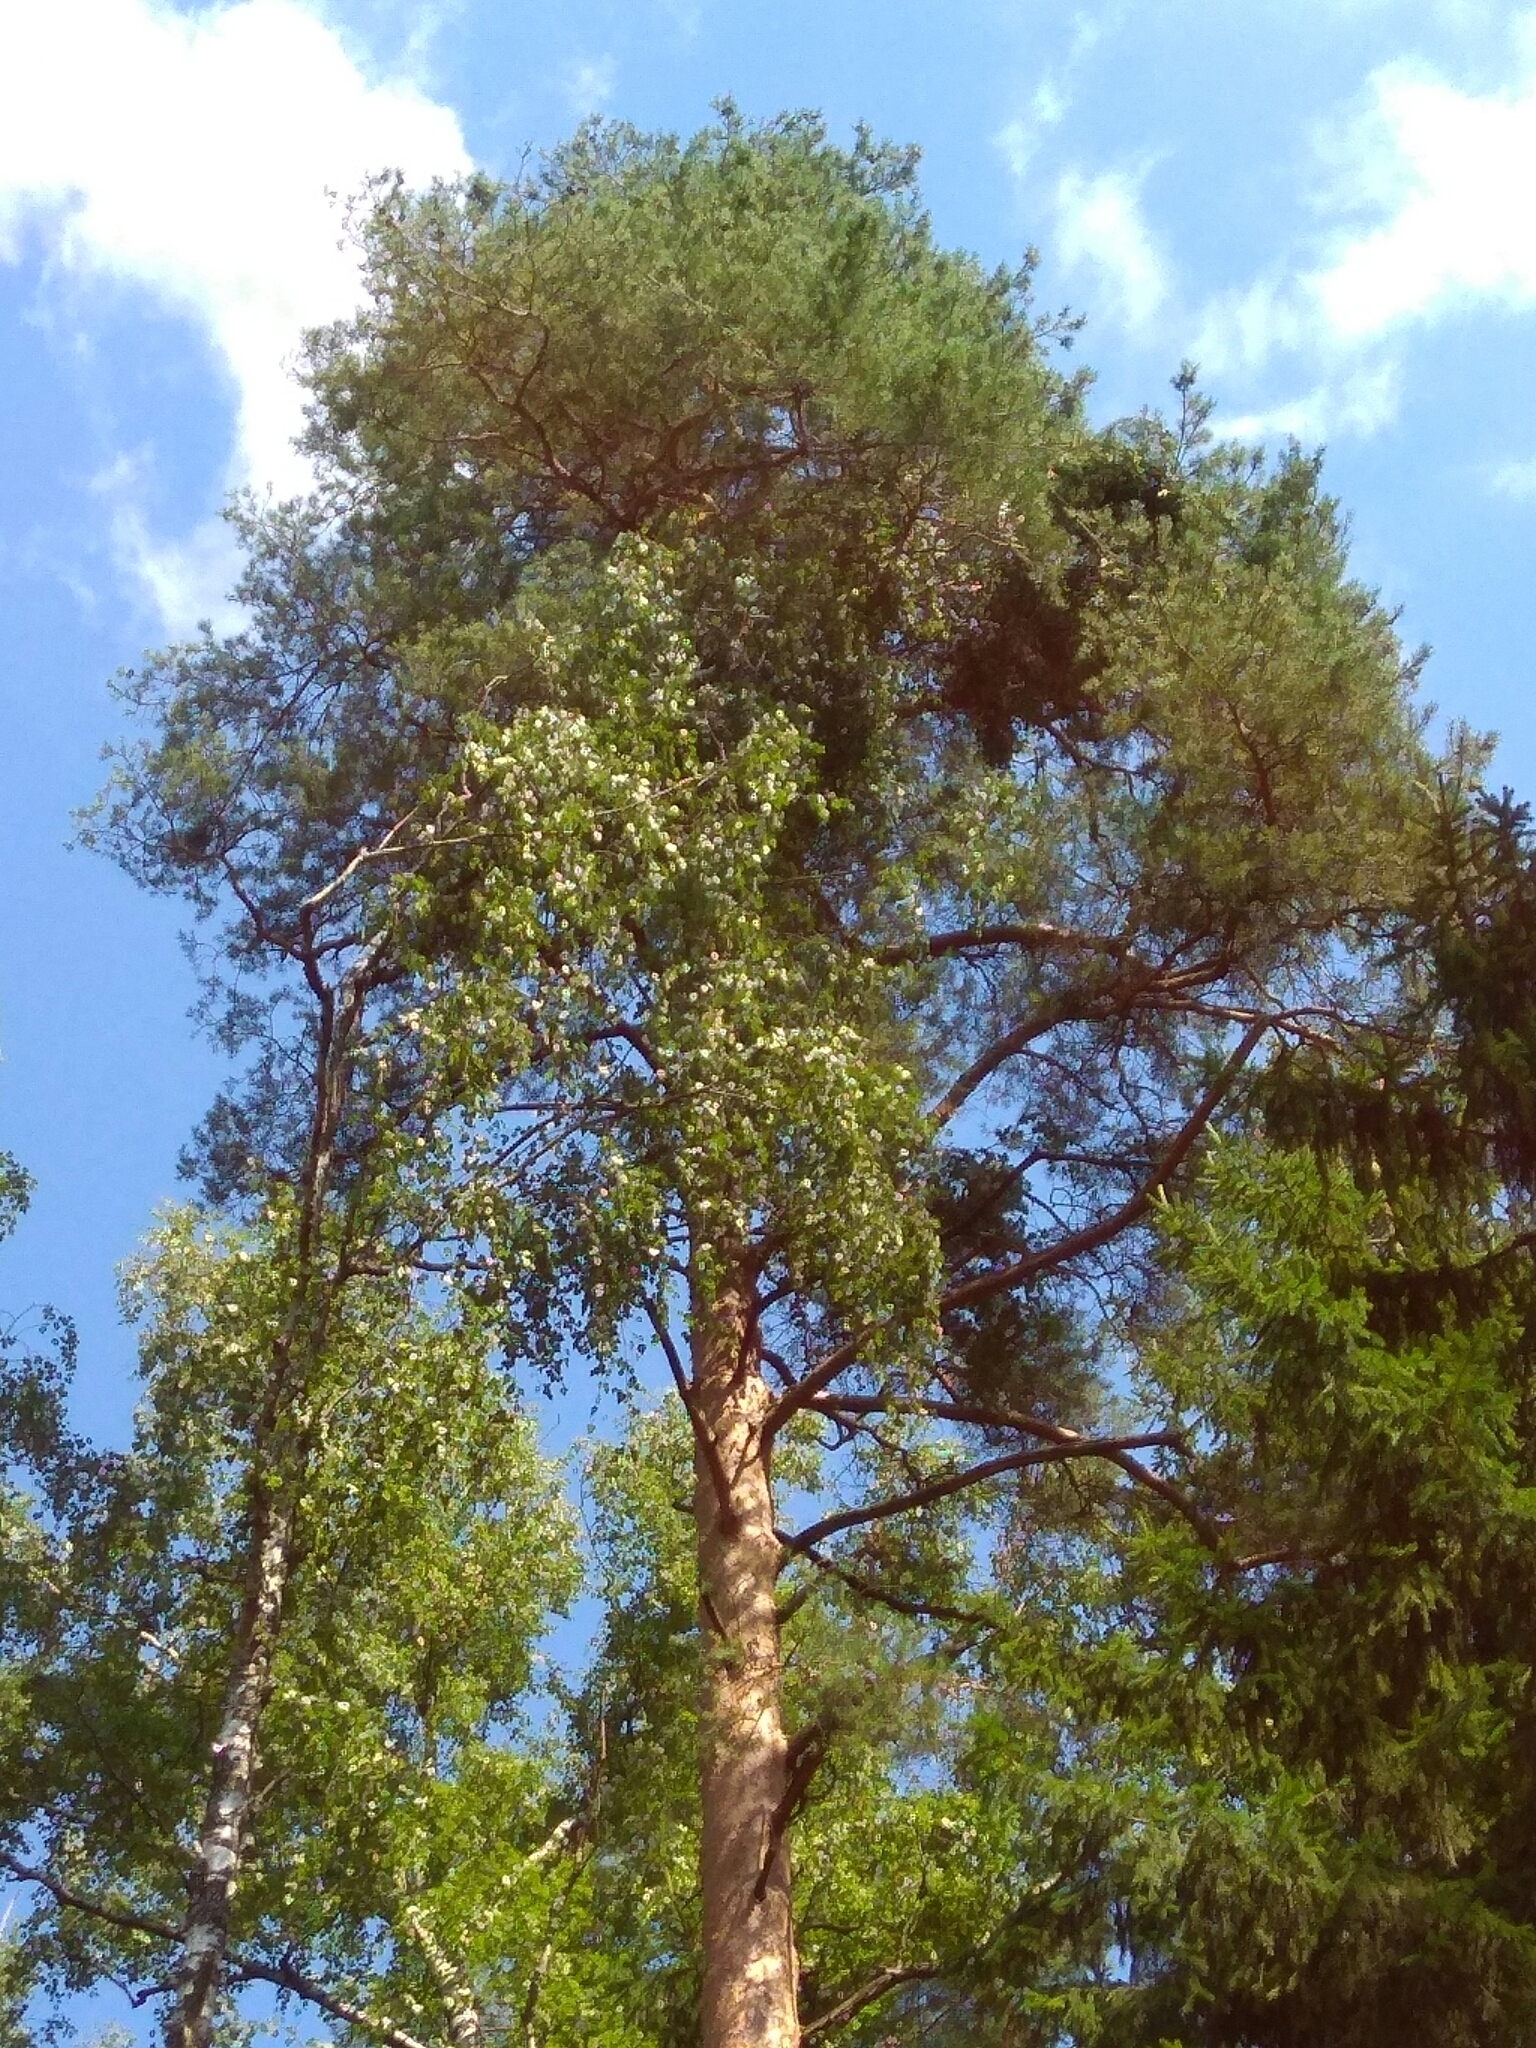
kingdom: Plantae
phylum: Tracheophyta
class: Pinopsida
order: Pinales
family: Pinaceae
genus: Pinus
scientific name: Pinus sylvestris
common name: Scots pine
